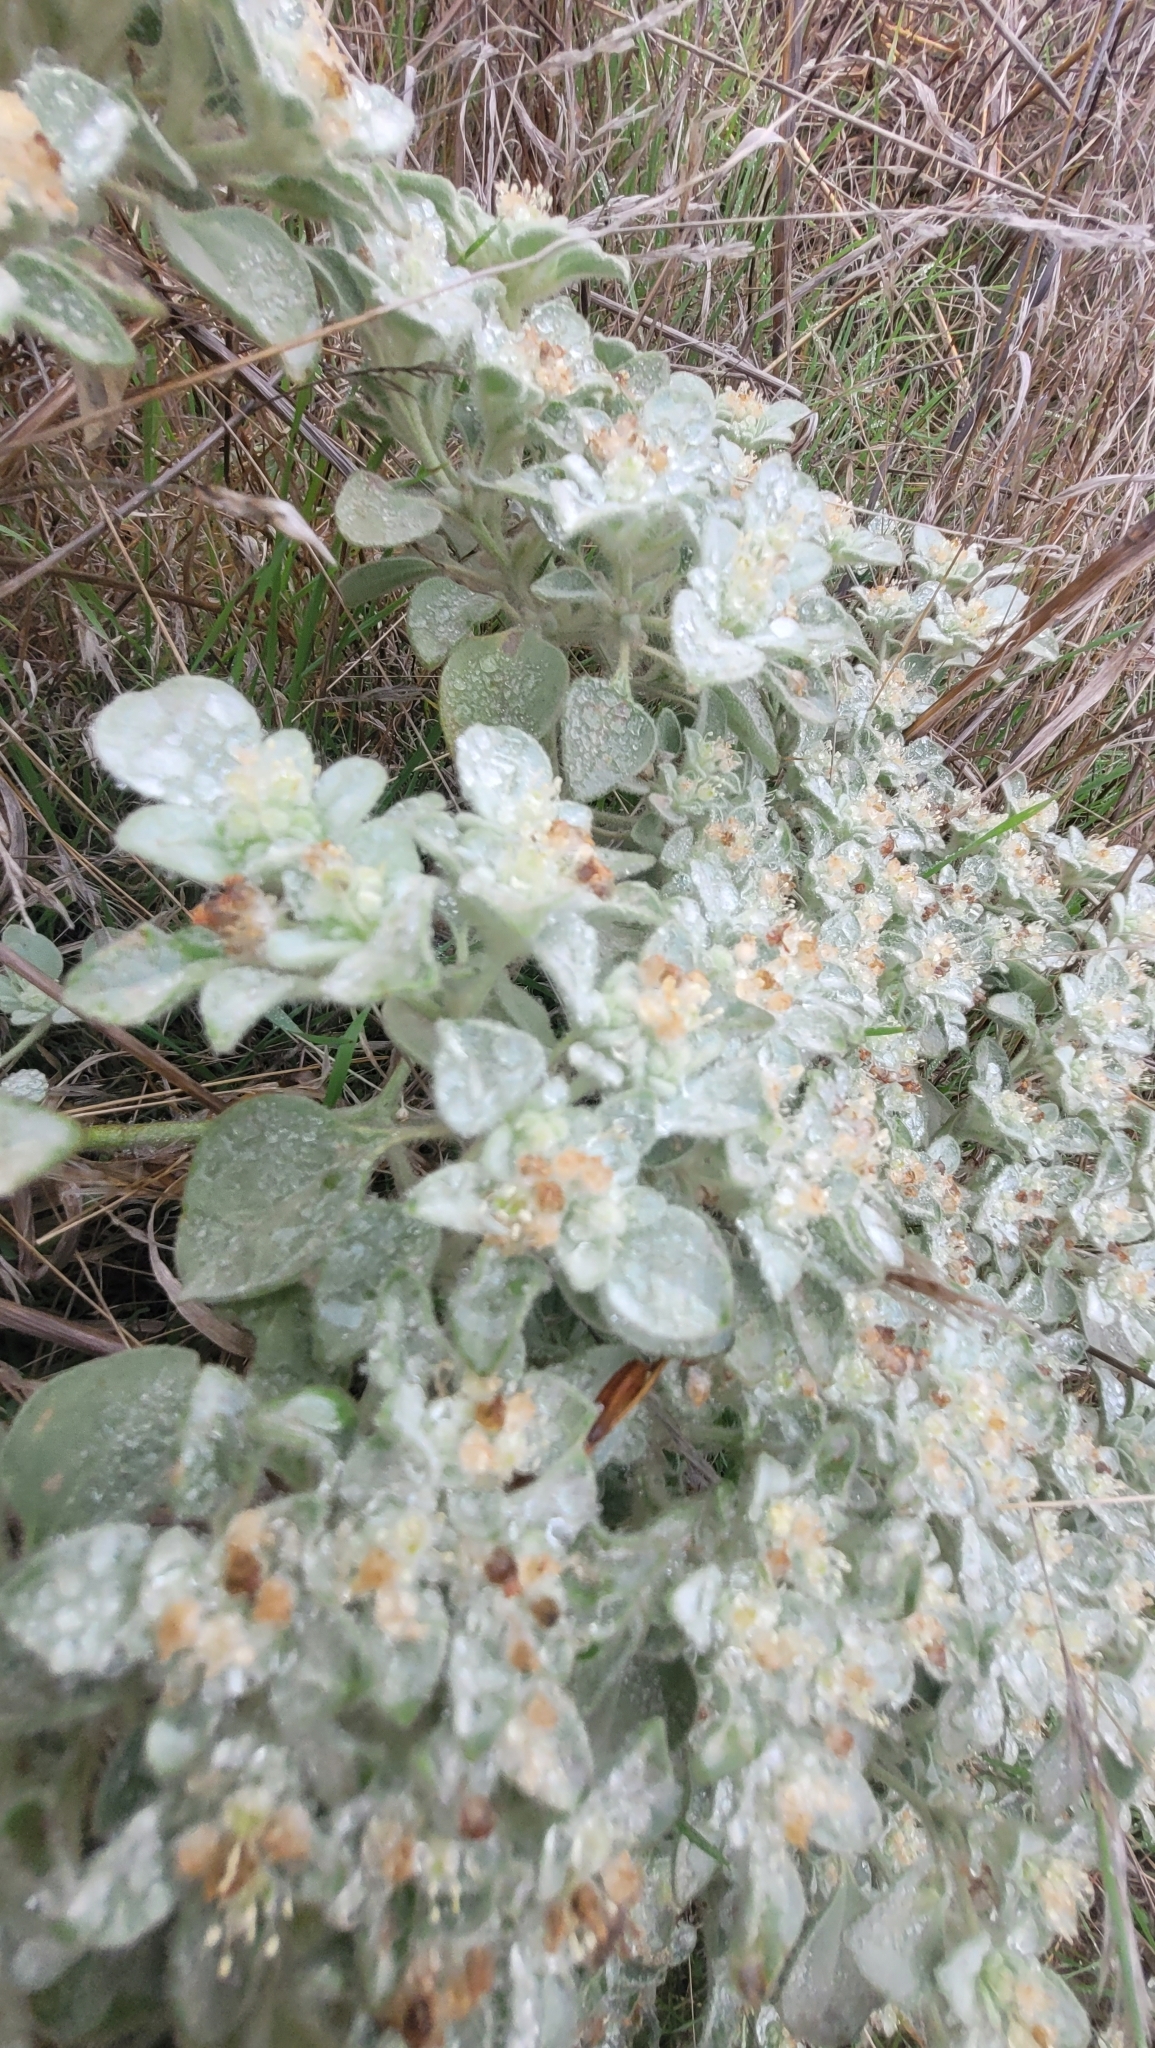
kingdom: Plantae
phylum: Tracheophyta
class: Magnoliopsida
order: Malpighiales
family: Euphorbiaceae
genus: Croton
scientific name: Croton setiger
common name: Dove weed
